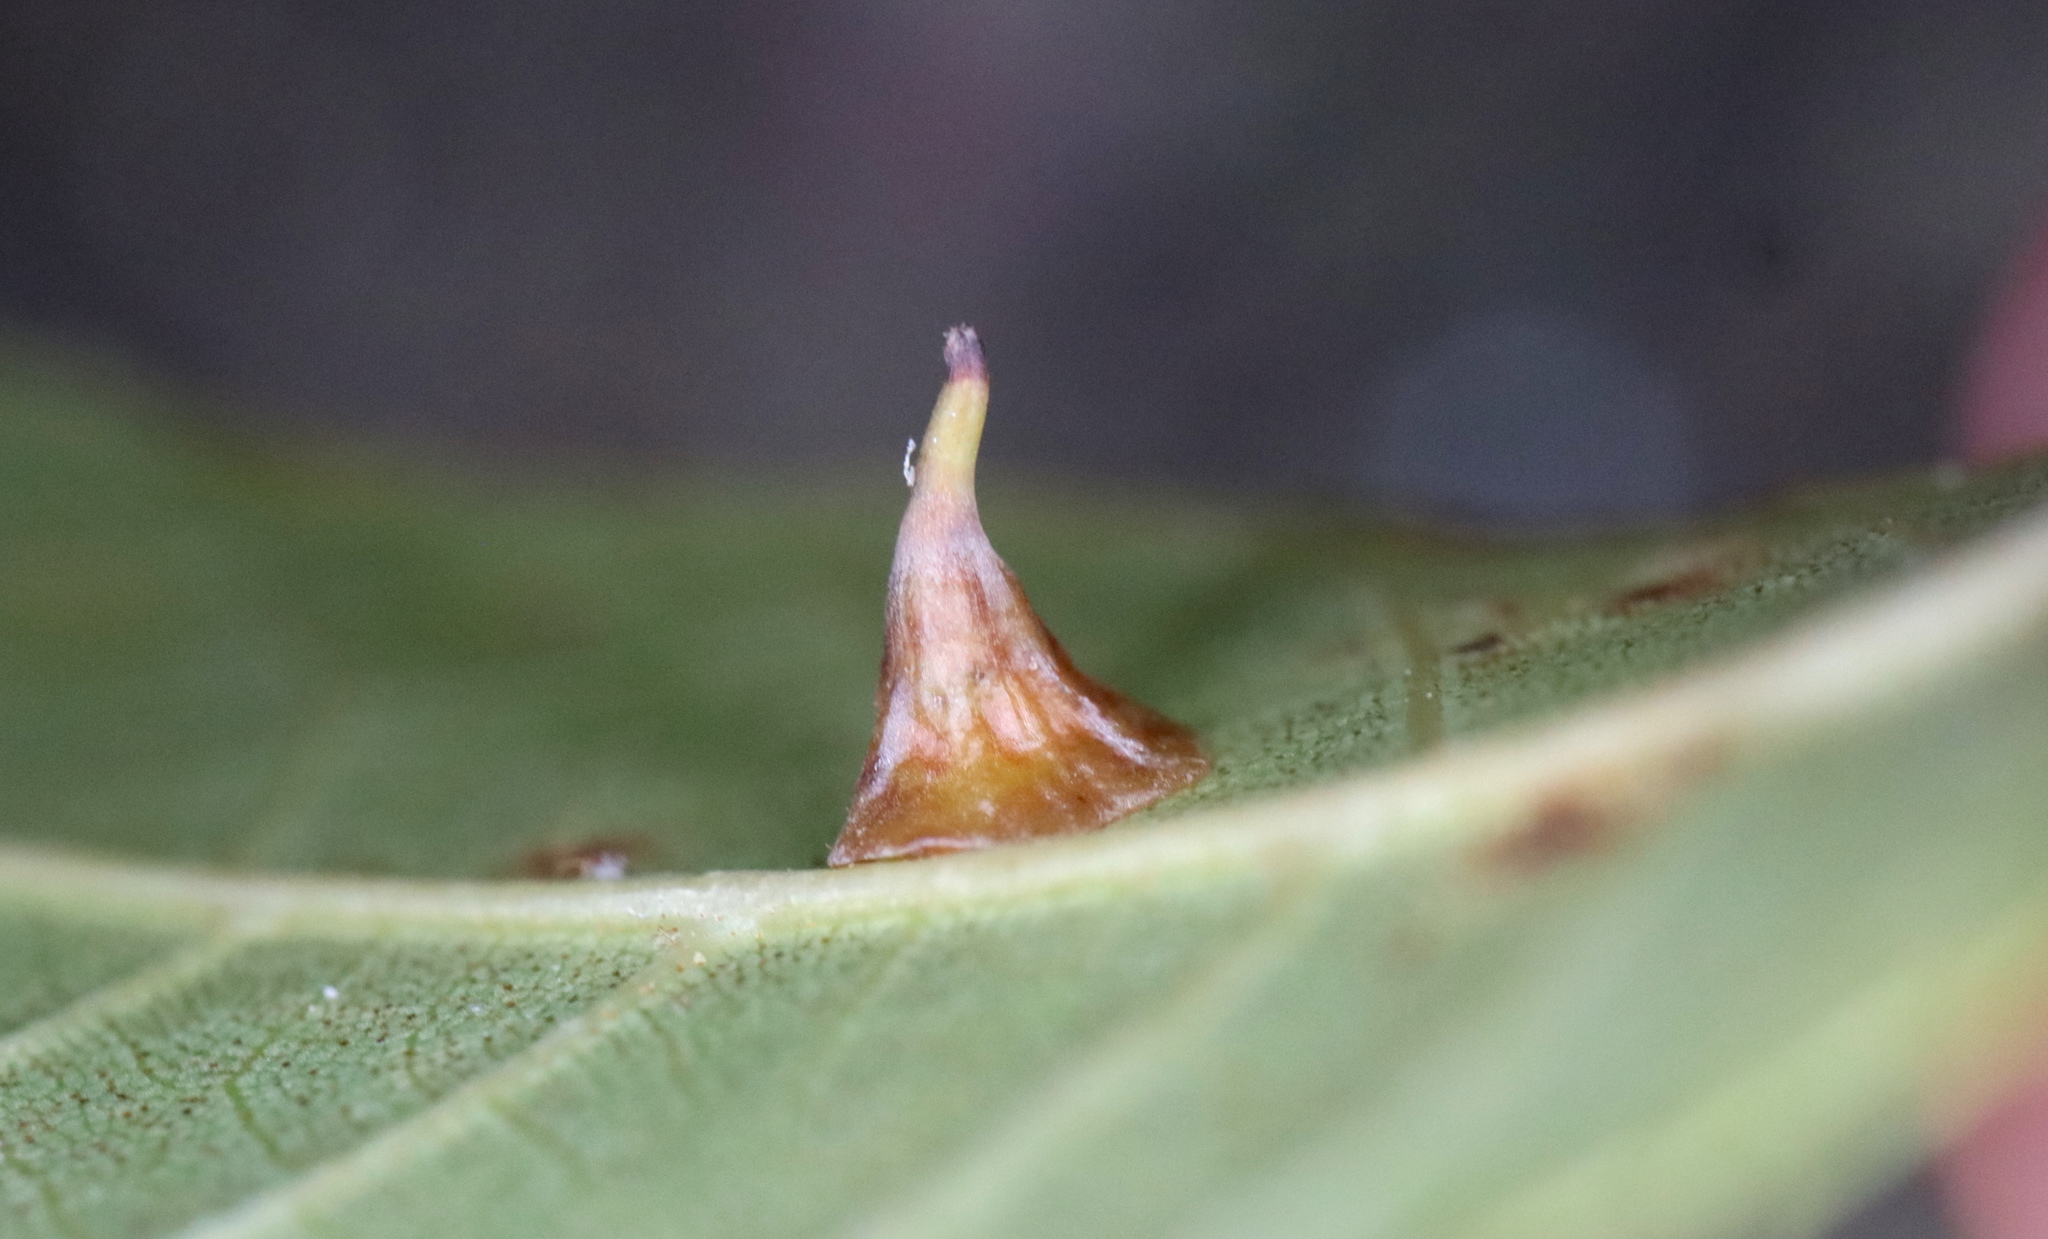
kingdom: Animalia
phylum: Arthropoda
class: Insecta
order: Diptera
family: Cecidomyiidae
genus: Caryomyia
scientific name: Caryomyia stellata
